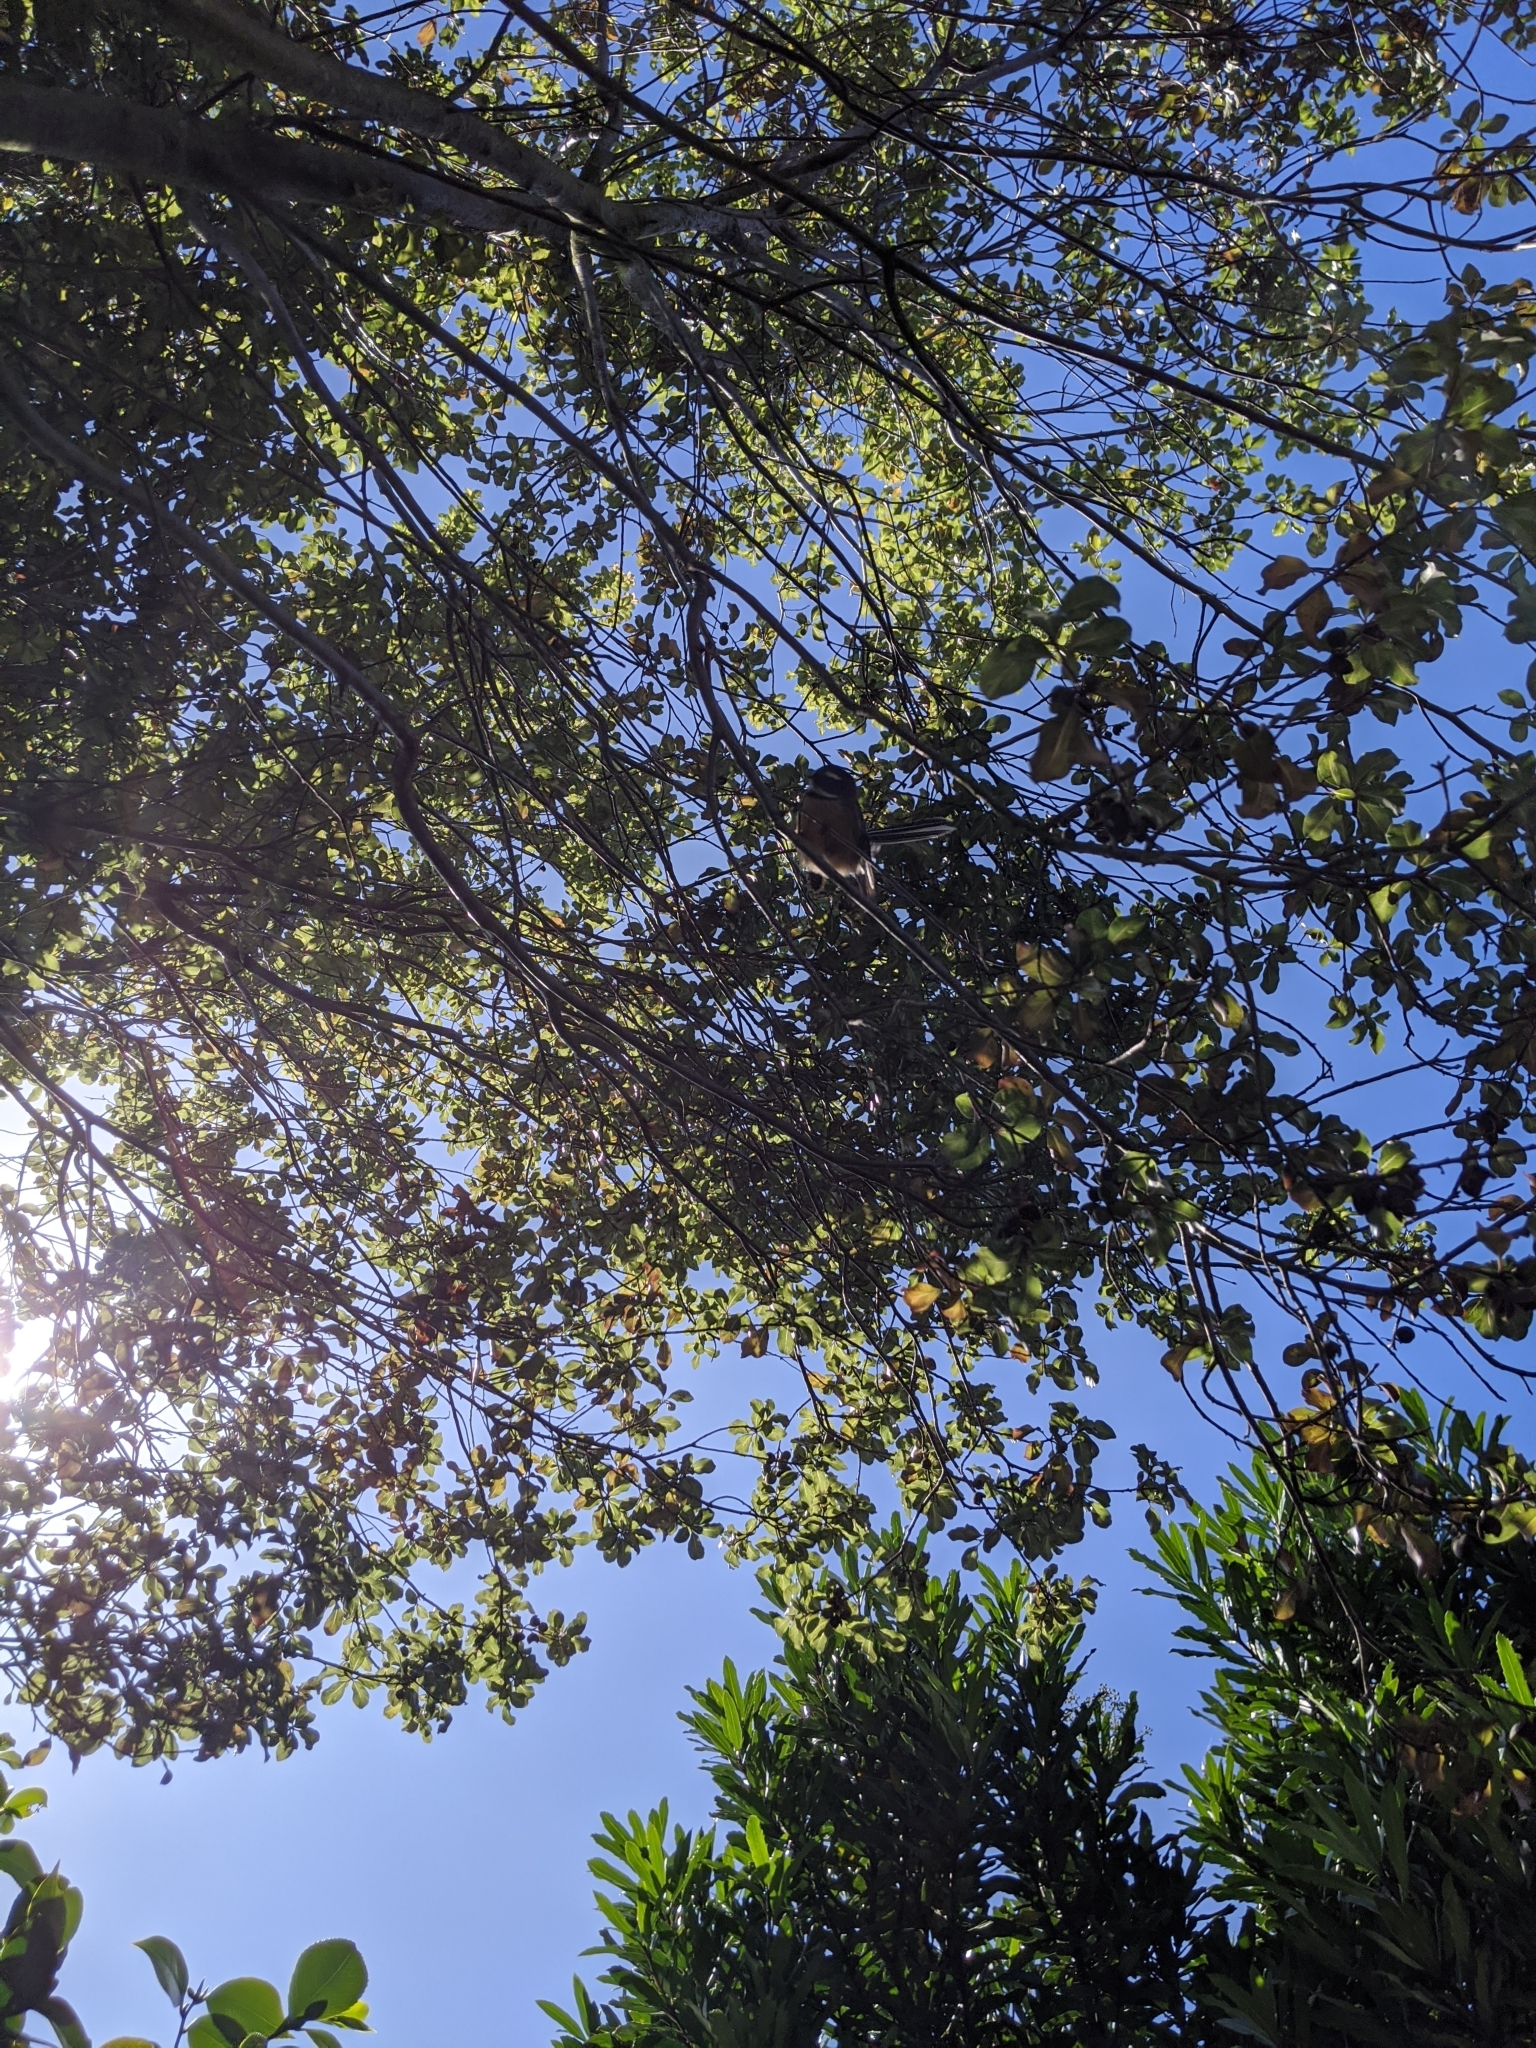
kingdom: Animalia
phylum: Chordata
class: Aves
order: Passeriformes
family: Rhipiduridae
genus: Rhipidura
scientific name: Rhipidura fuliginosa
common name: New zealand fantail
